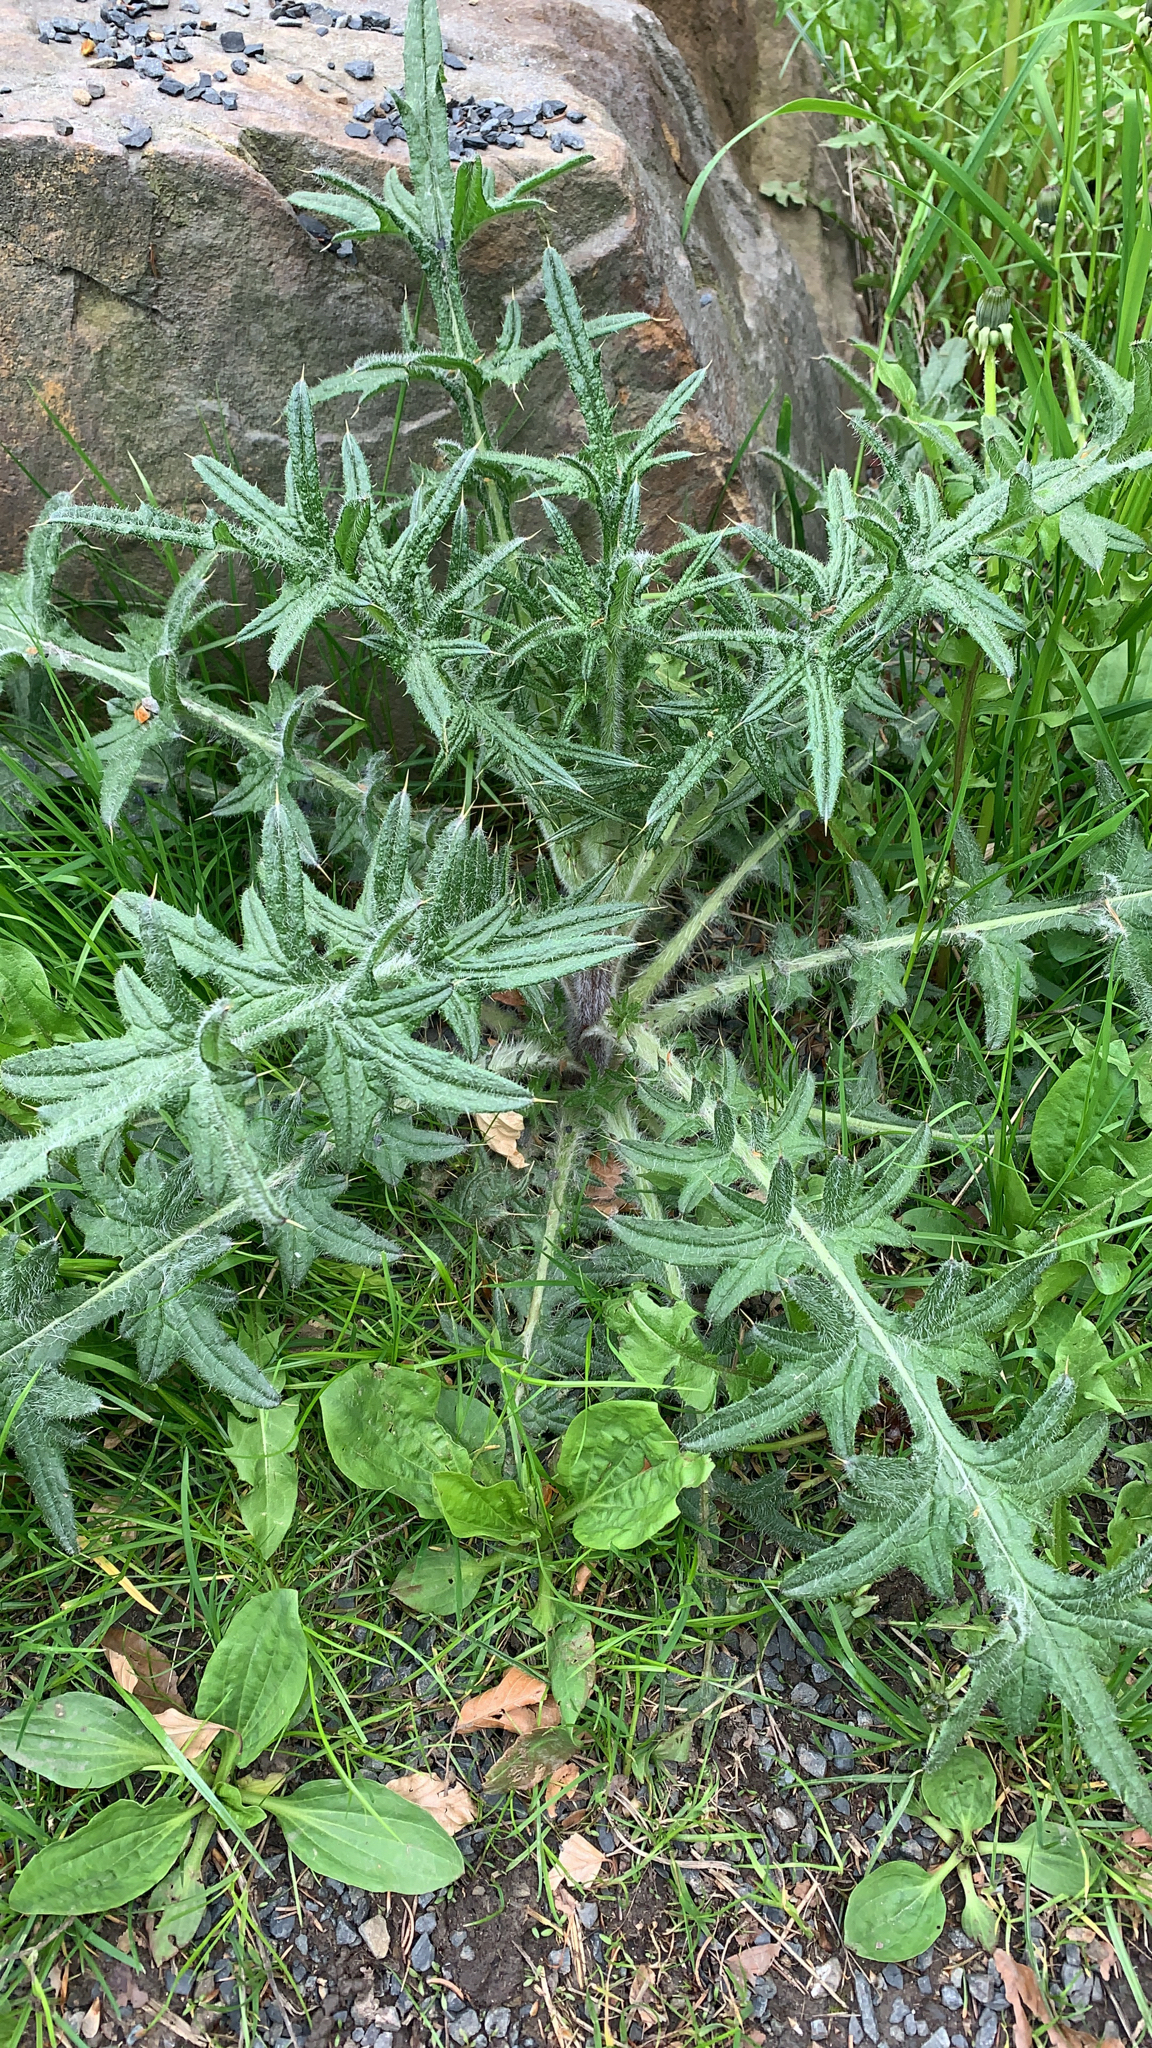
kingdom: Plantae
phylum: Tracheophyta
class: Magnoliopsida
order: Asterales
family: Asteraceae
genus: Cirsium
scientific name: Cirsium vulgare
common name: Bull thistle
